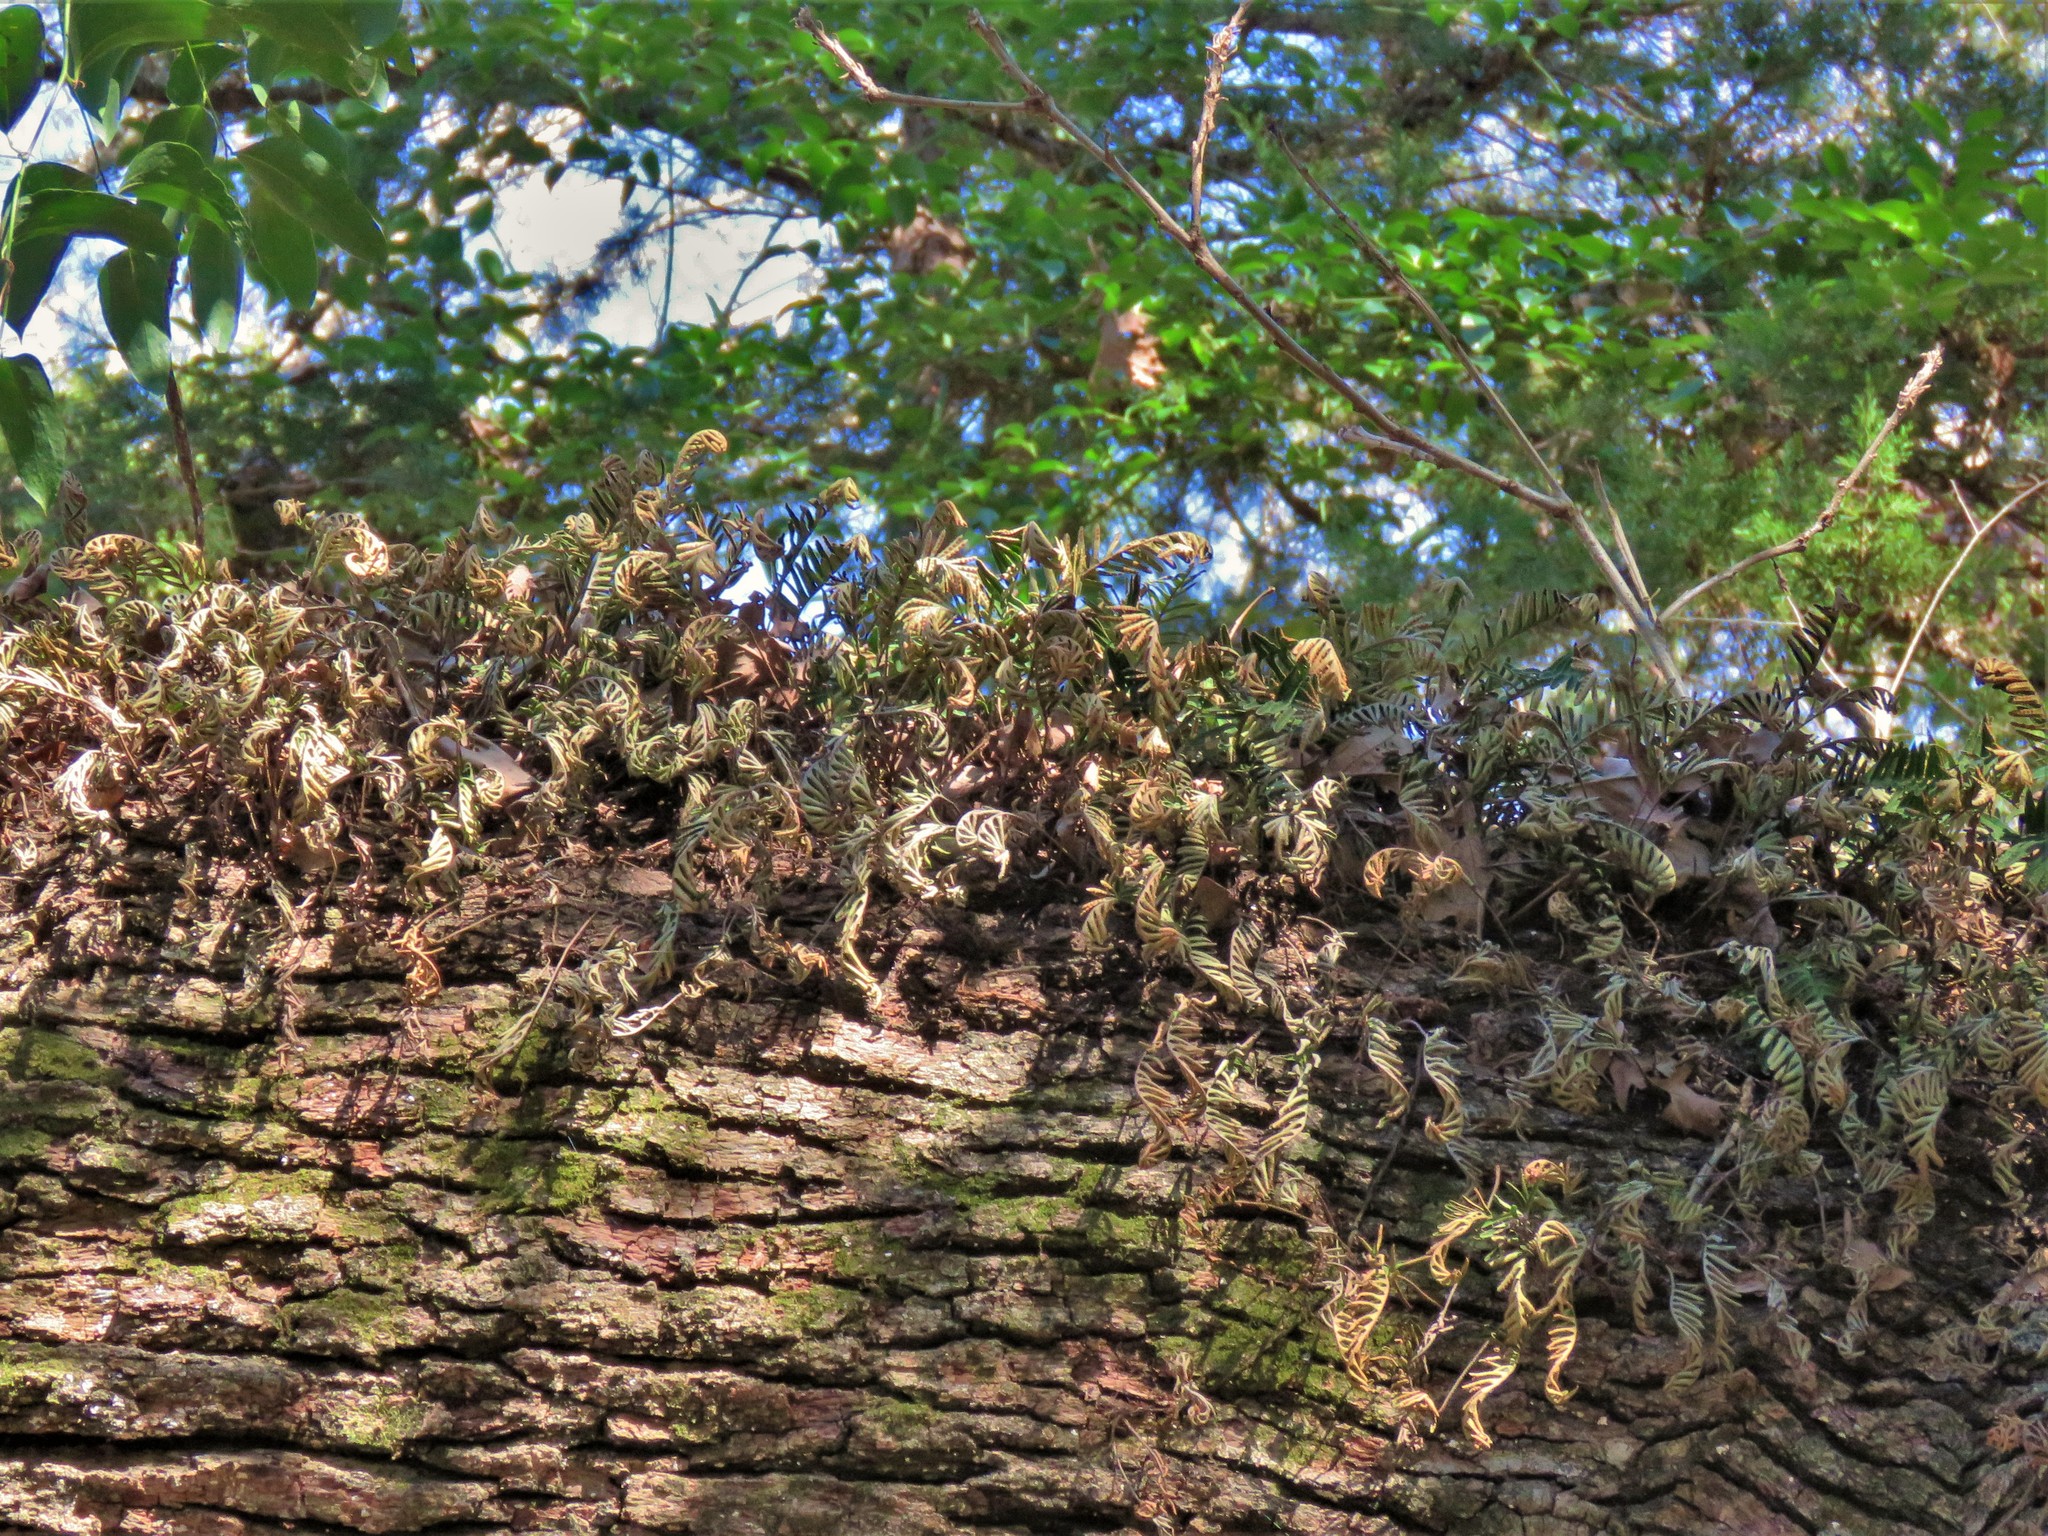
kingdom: Plantae
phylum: Tracheophyta
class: Polypodiopsida
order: Polypodiales
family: Polypodiaceae
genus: Pleopeltis
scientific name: Pleopeltis michauxiana
